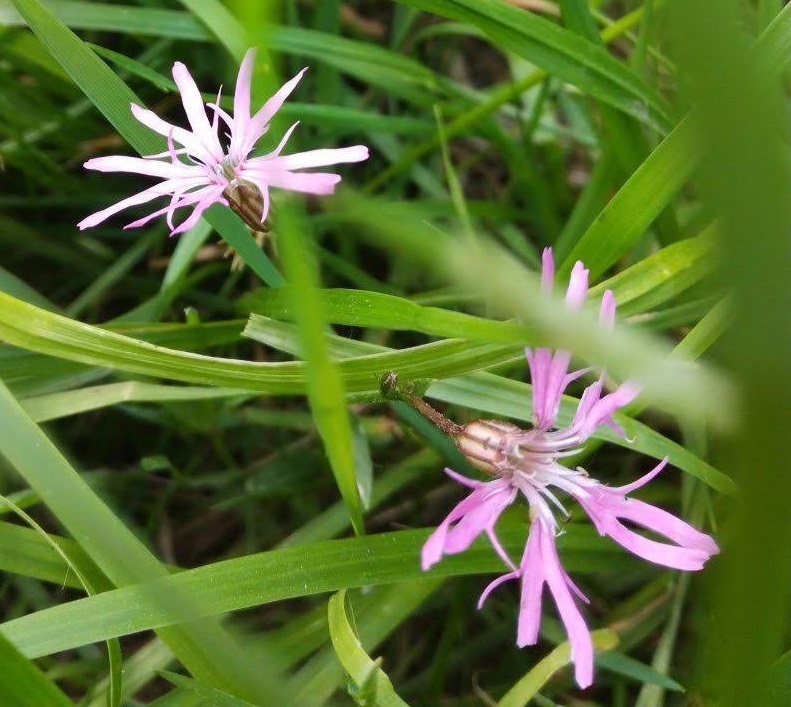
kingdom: Plantae
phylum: Tracheophyta
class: Magnoliopsida
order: Caryophyllales
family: Caryophyllaceae
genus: Silene
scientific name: Silene flos-cuculi
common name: Ragged-robin
